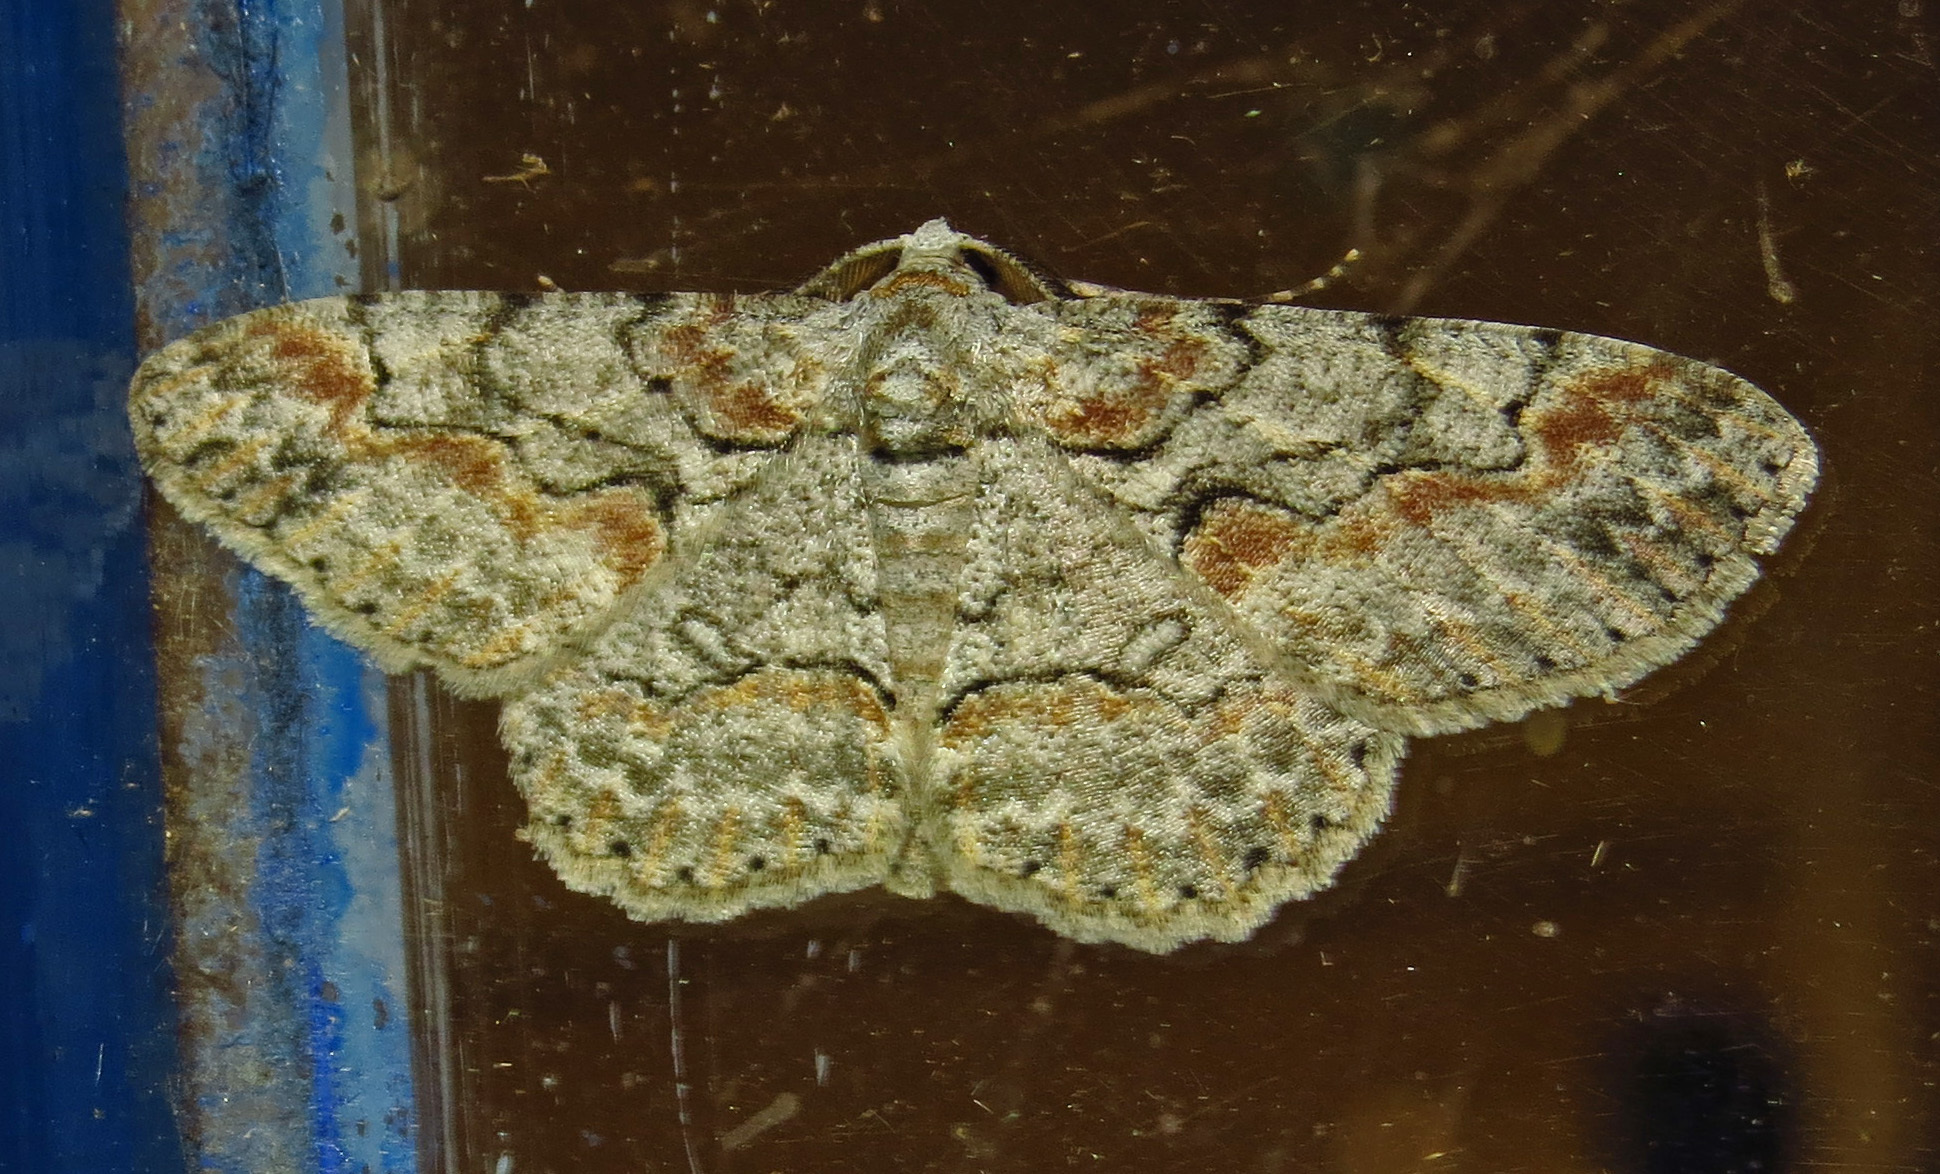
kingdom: Animalia
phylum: Arthropoda
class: Insecta
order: Lepidoptera
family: Geometridae
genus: Iridopsis
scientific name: Iridopsis defectaria
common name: Brown-shaded gray
